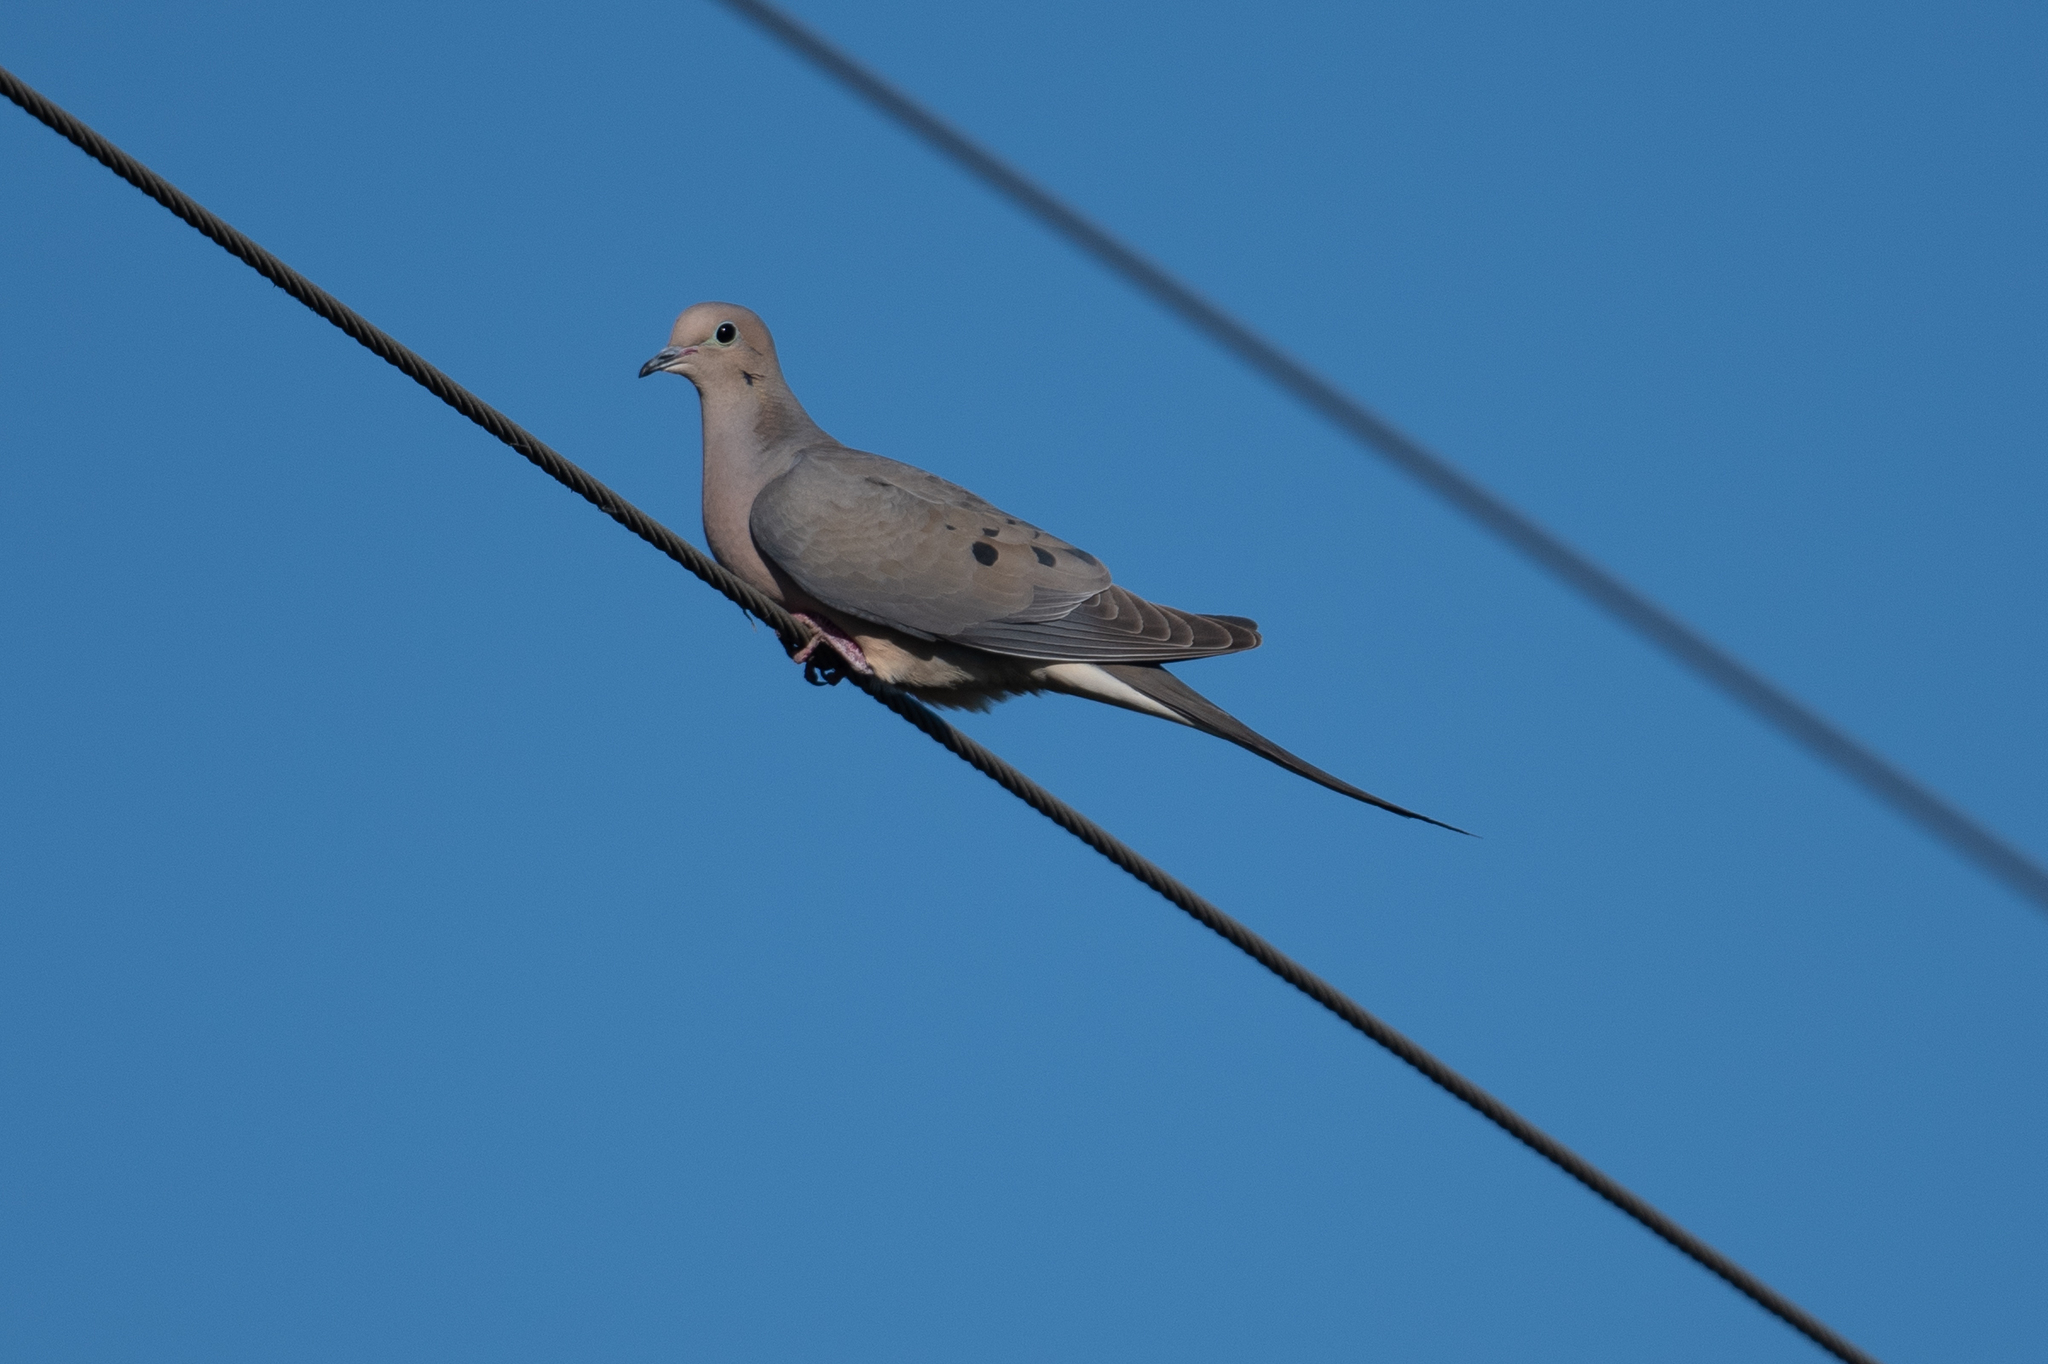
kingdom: Animalia
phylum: Chordata
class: Aves
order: Columbiformes
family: Columbidae
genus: Zenaida
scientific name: Zenaida macroura
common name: Mourning dove
